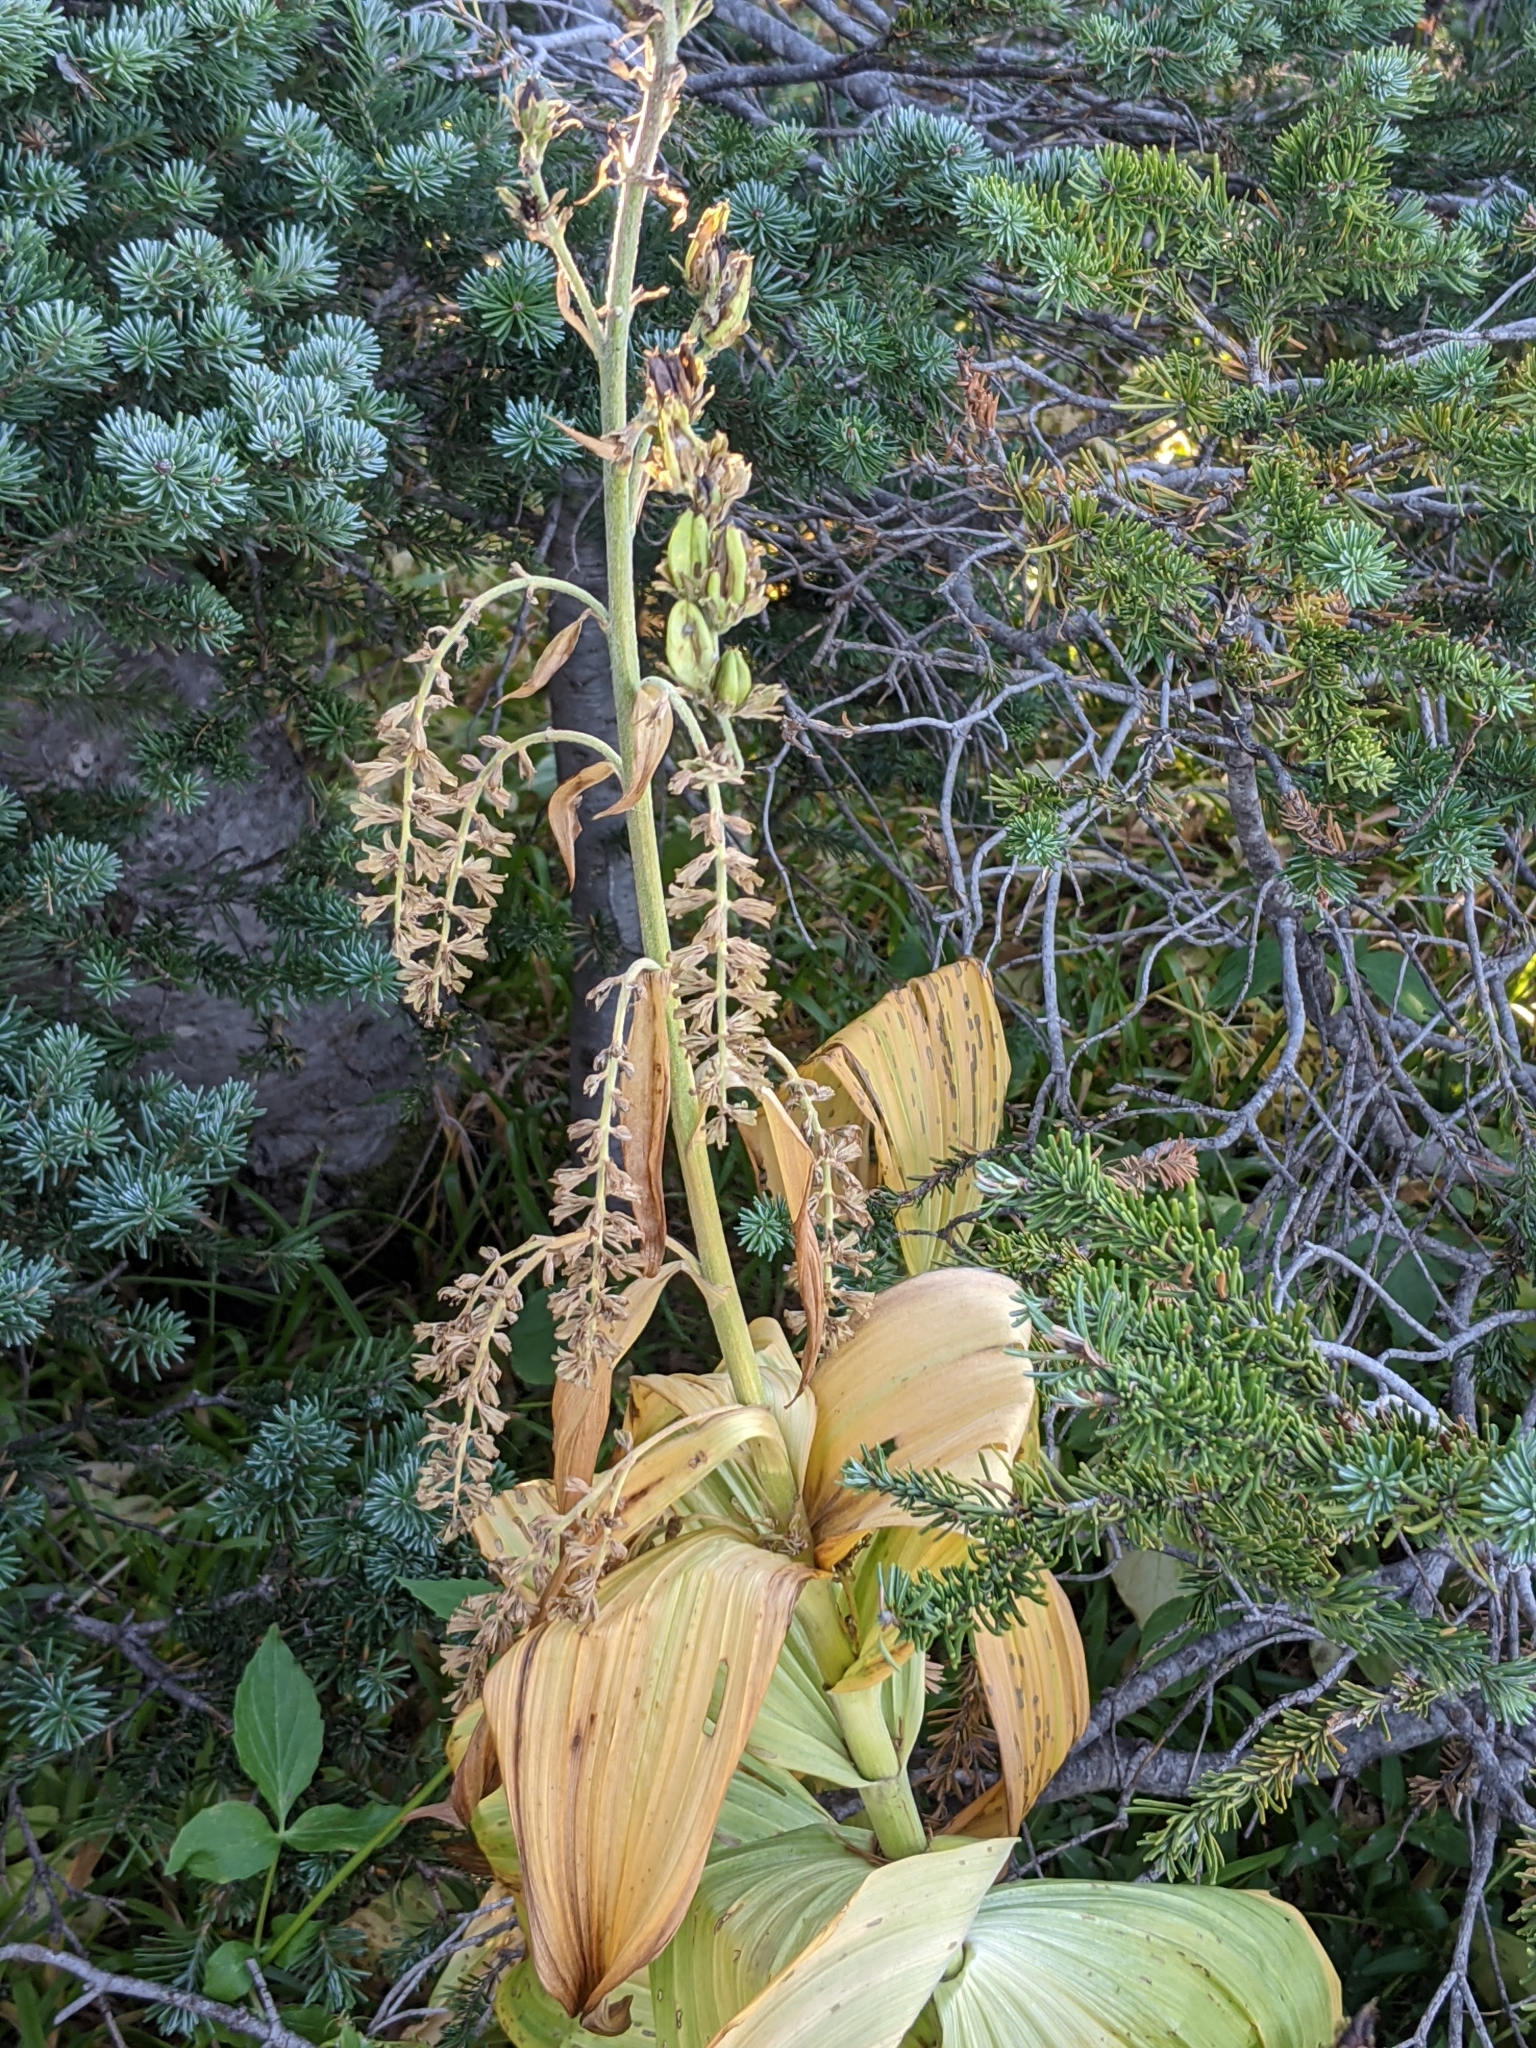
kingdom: Plantae
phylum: Tracheophyta
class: Liliopsida
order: Liliales
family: Melanthiaceae
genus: Veratrum
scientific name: Veratrum viride
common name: American false hellebore
